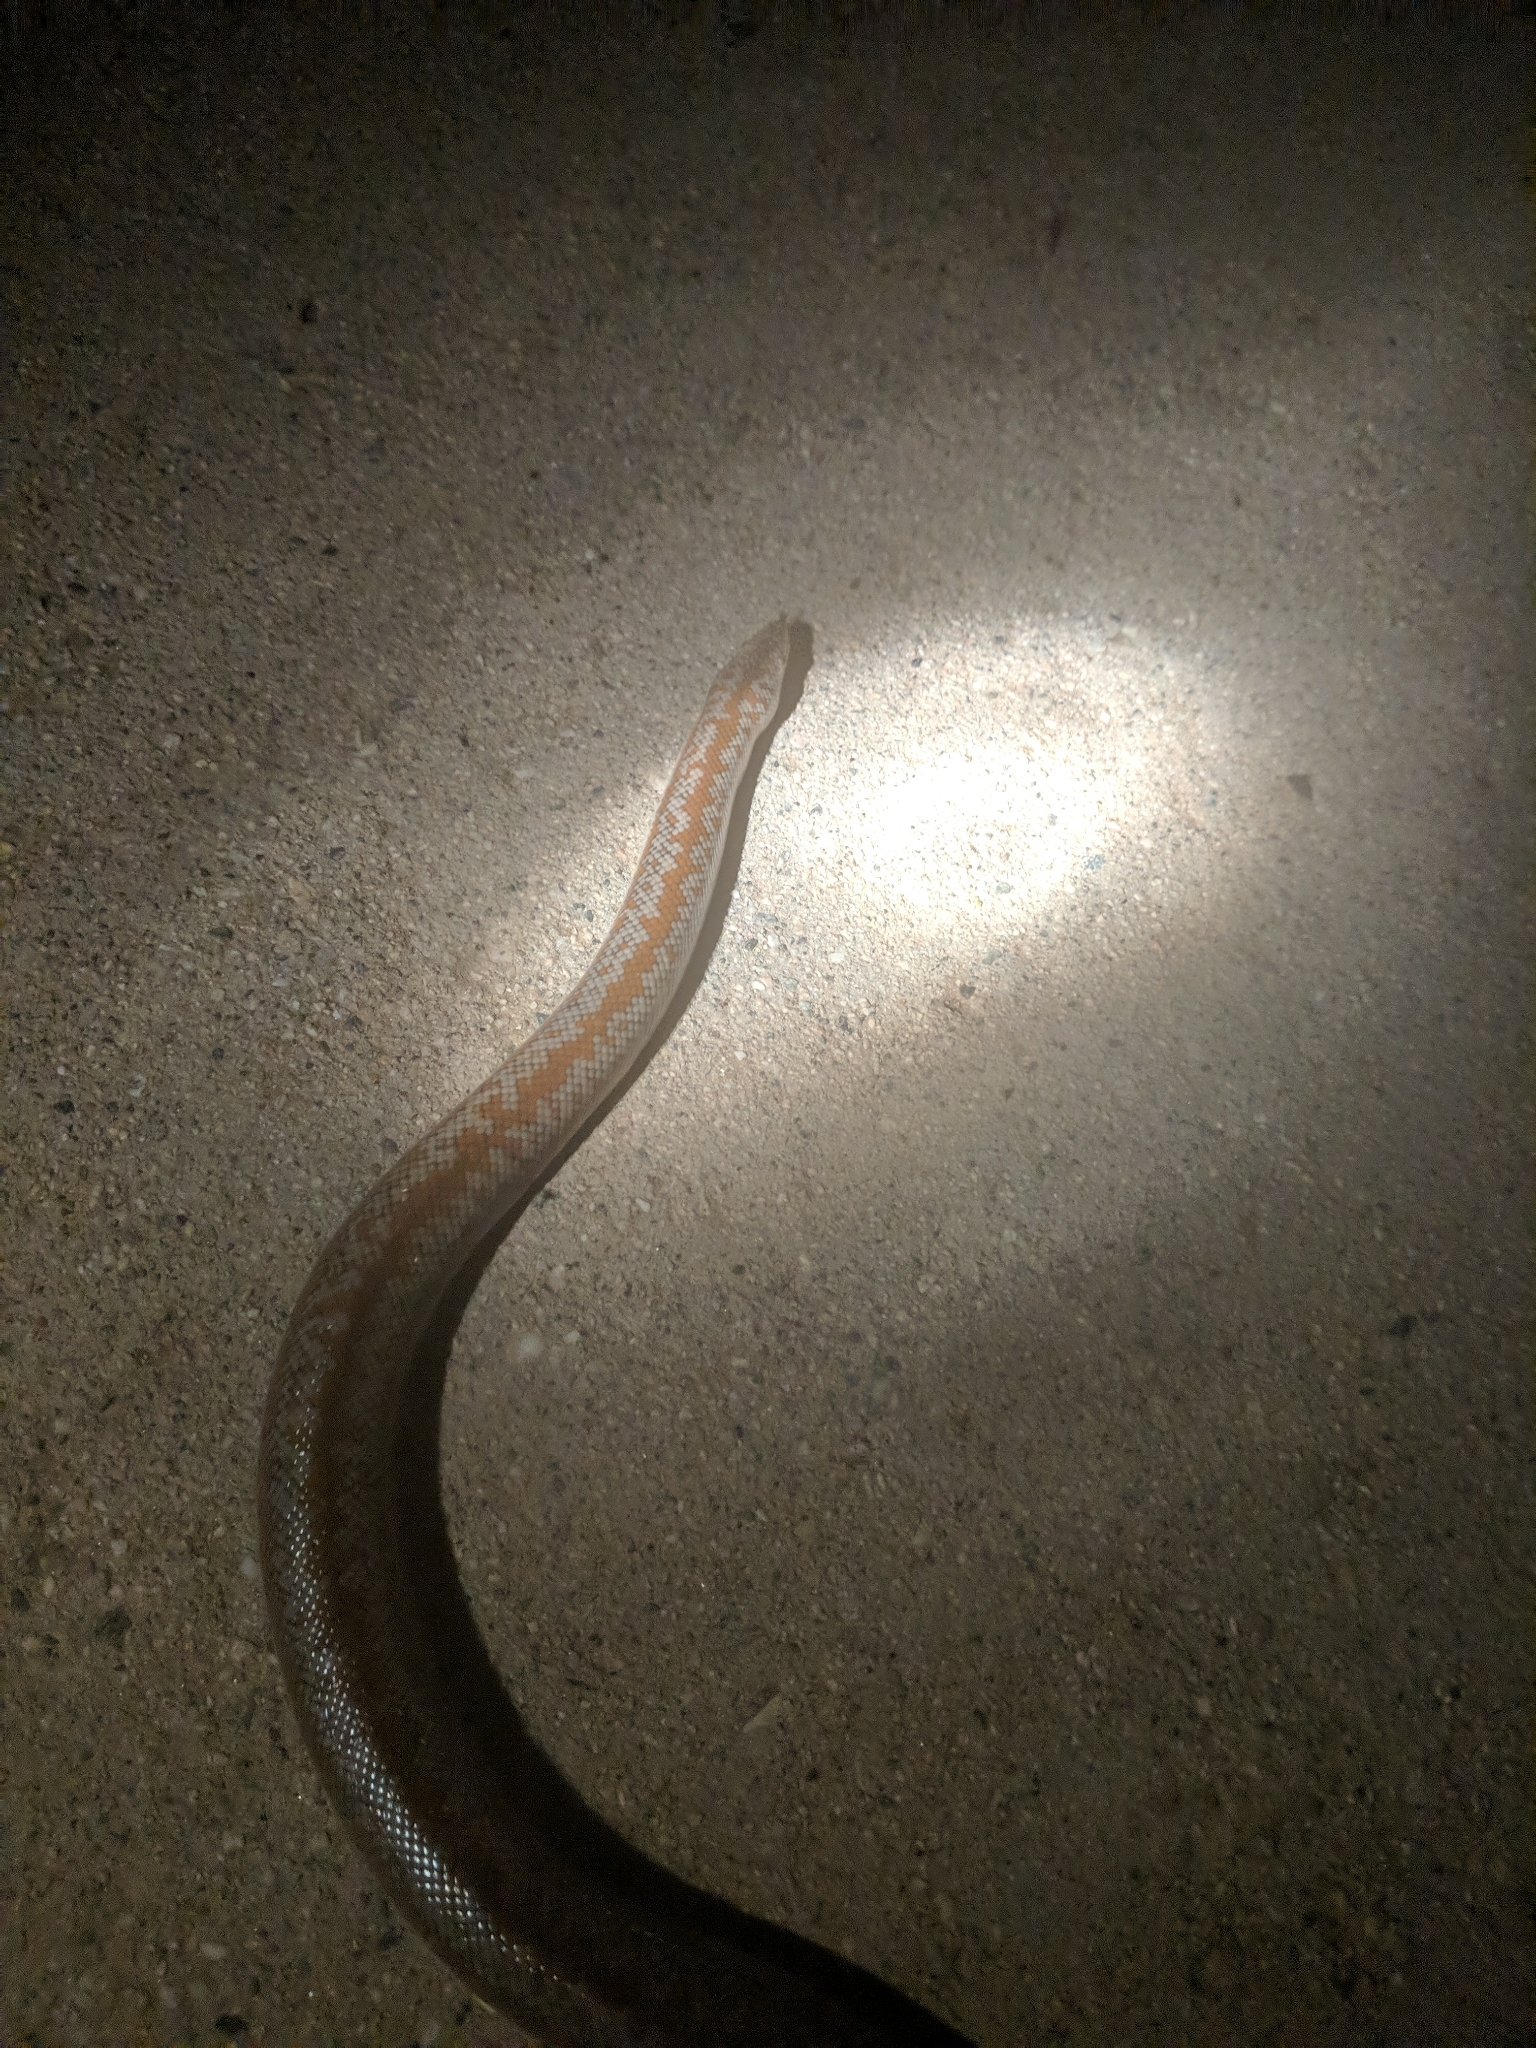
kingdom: Animalia
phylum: Chordata
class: Squamata
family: Boidae
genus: Lichanura
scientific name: Lichanura orcutti
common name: Northern three-lined boa
